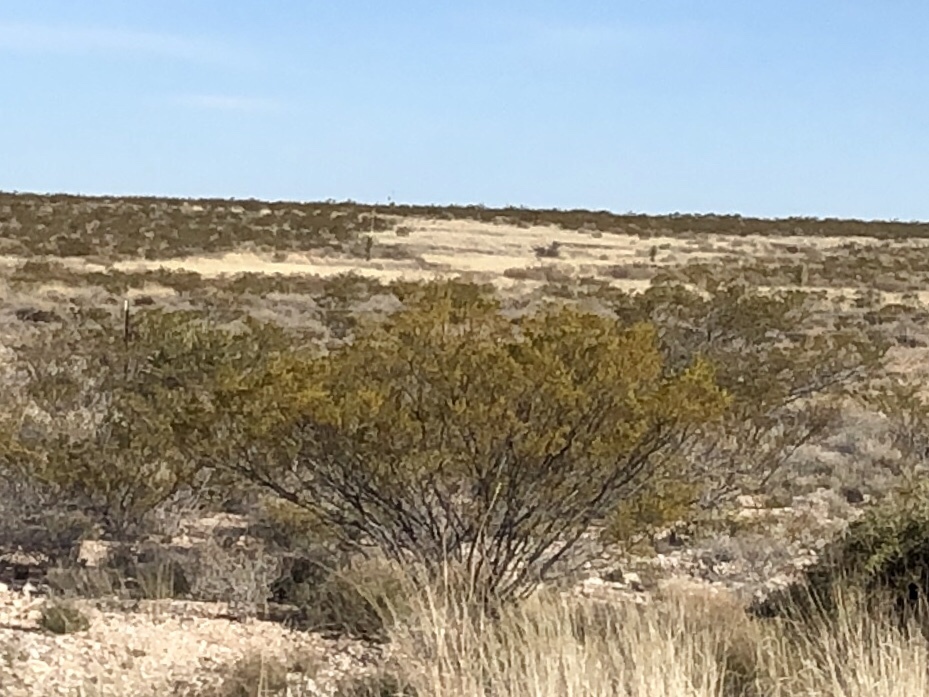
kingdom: Plantae
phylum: Tracheophyta
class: Magnoliopsida
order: Zygophyllales
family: Zygophyllaceae
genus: Larrea
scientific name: Larrea tridentata
